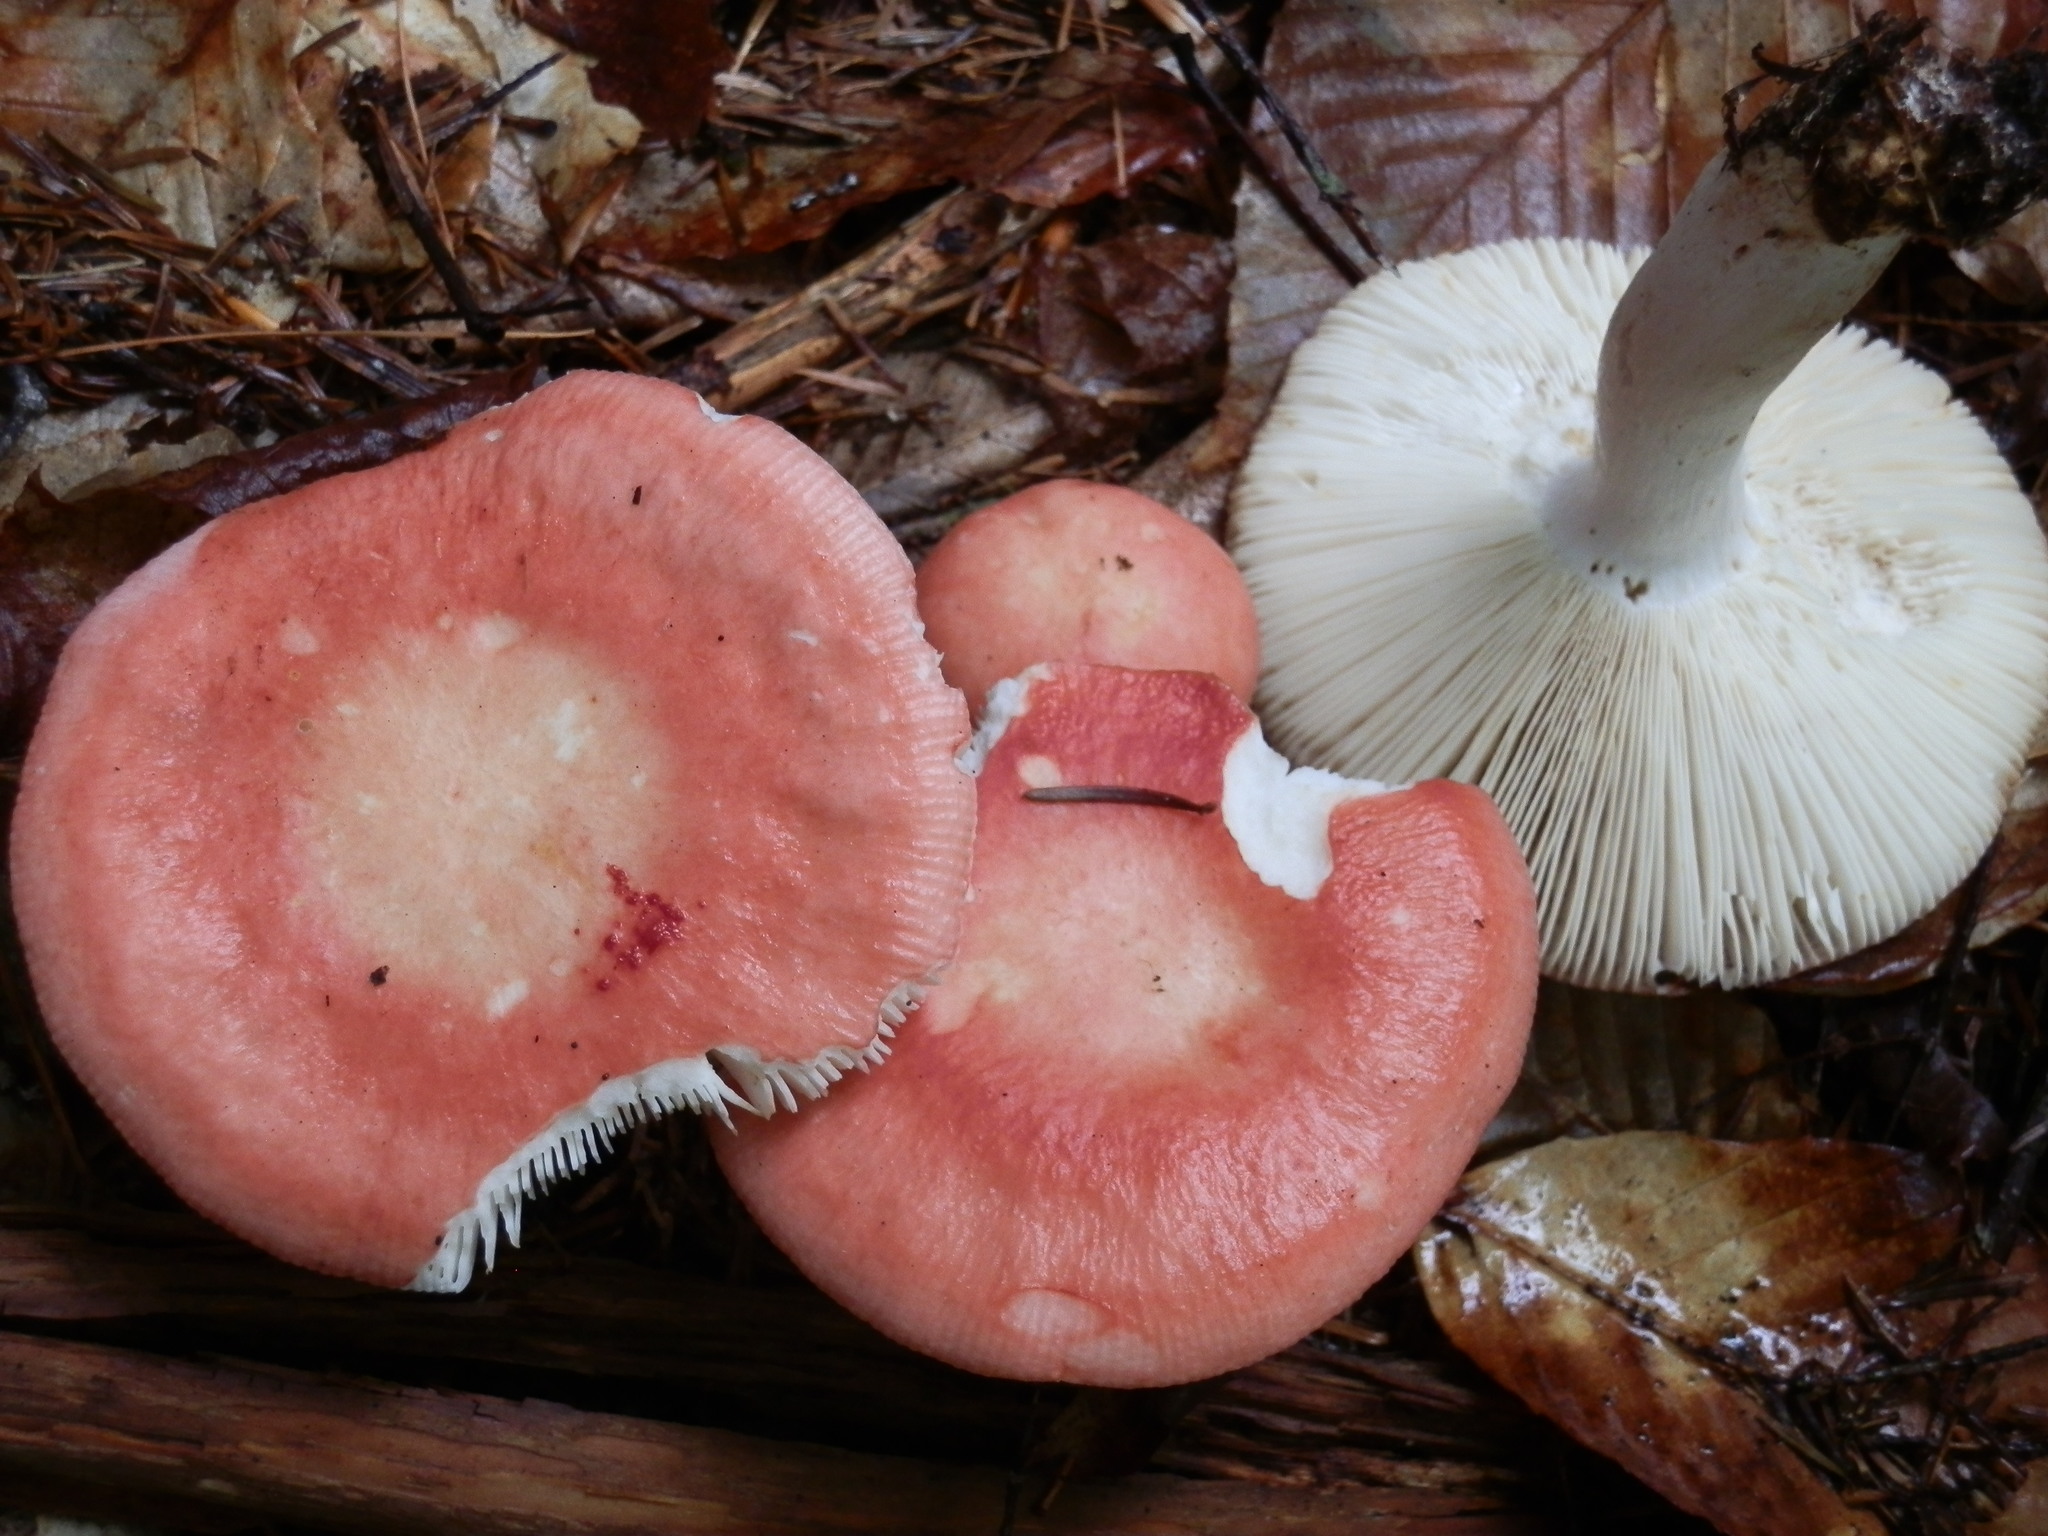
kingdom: Fungi
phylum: Basidiomycota
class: Agaricomycetes
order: Russulales
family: Russulaceae
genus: Russula
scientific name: Russula paludosa
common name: Hintapink
